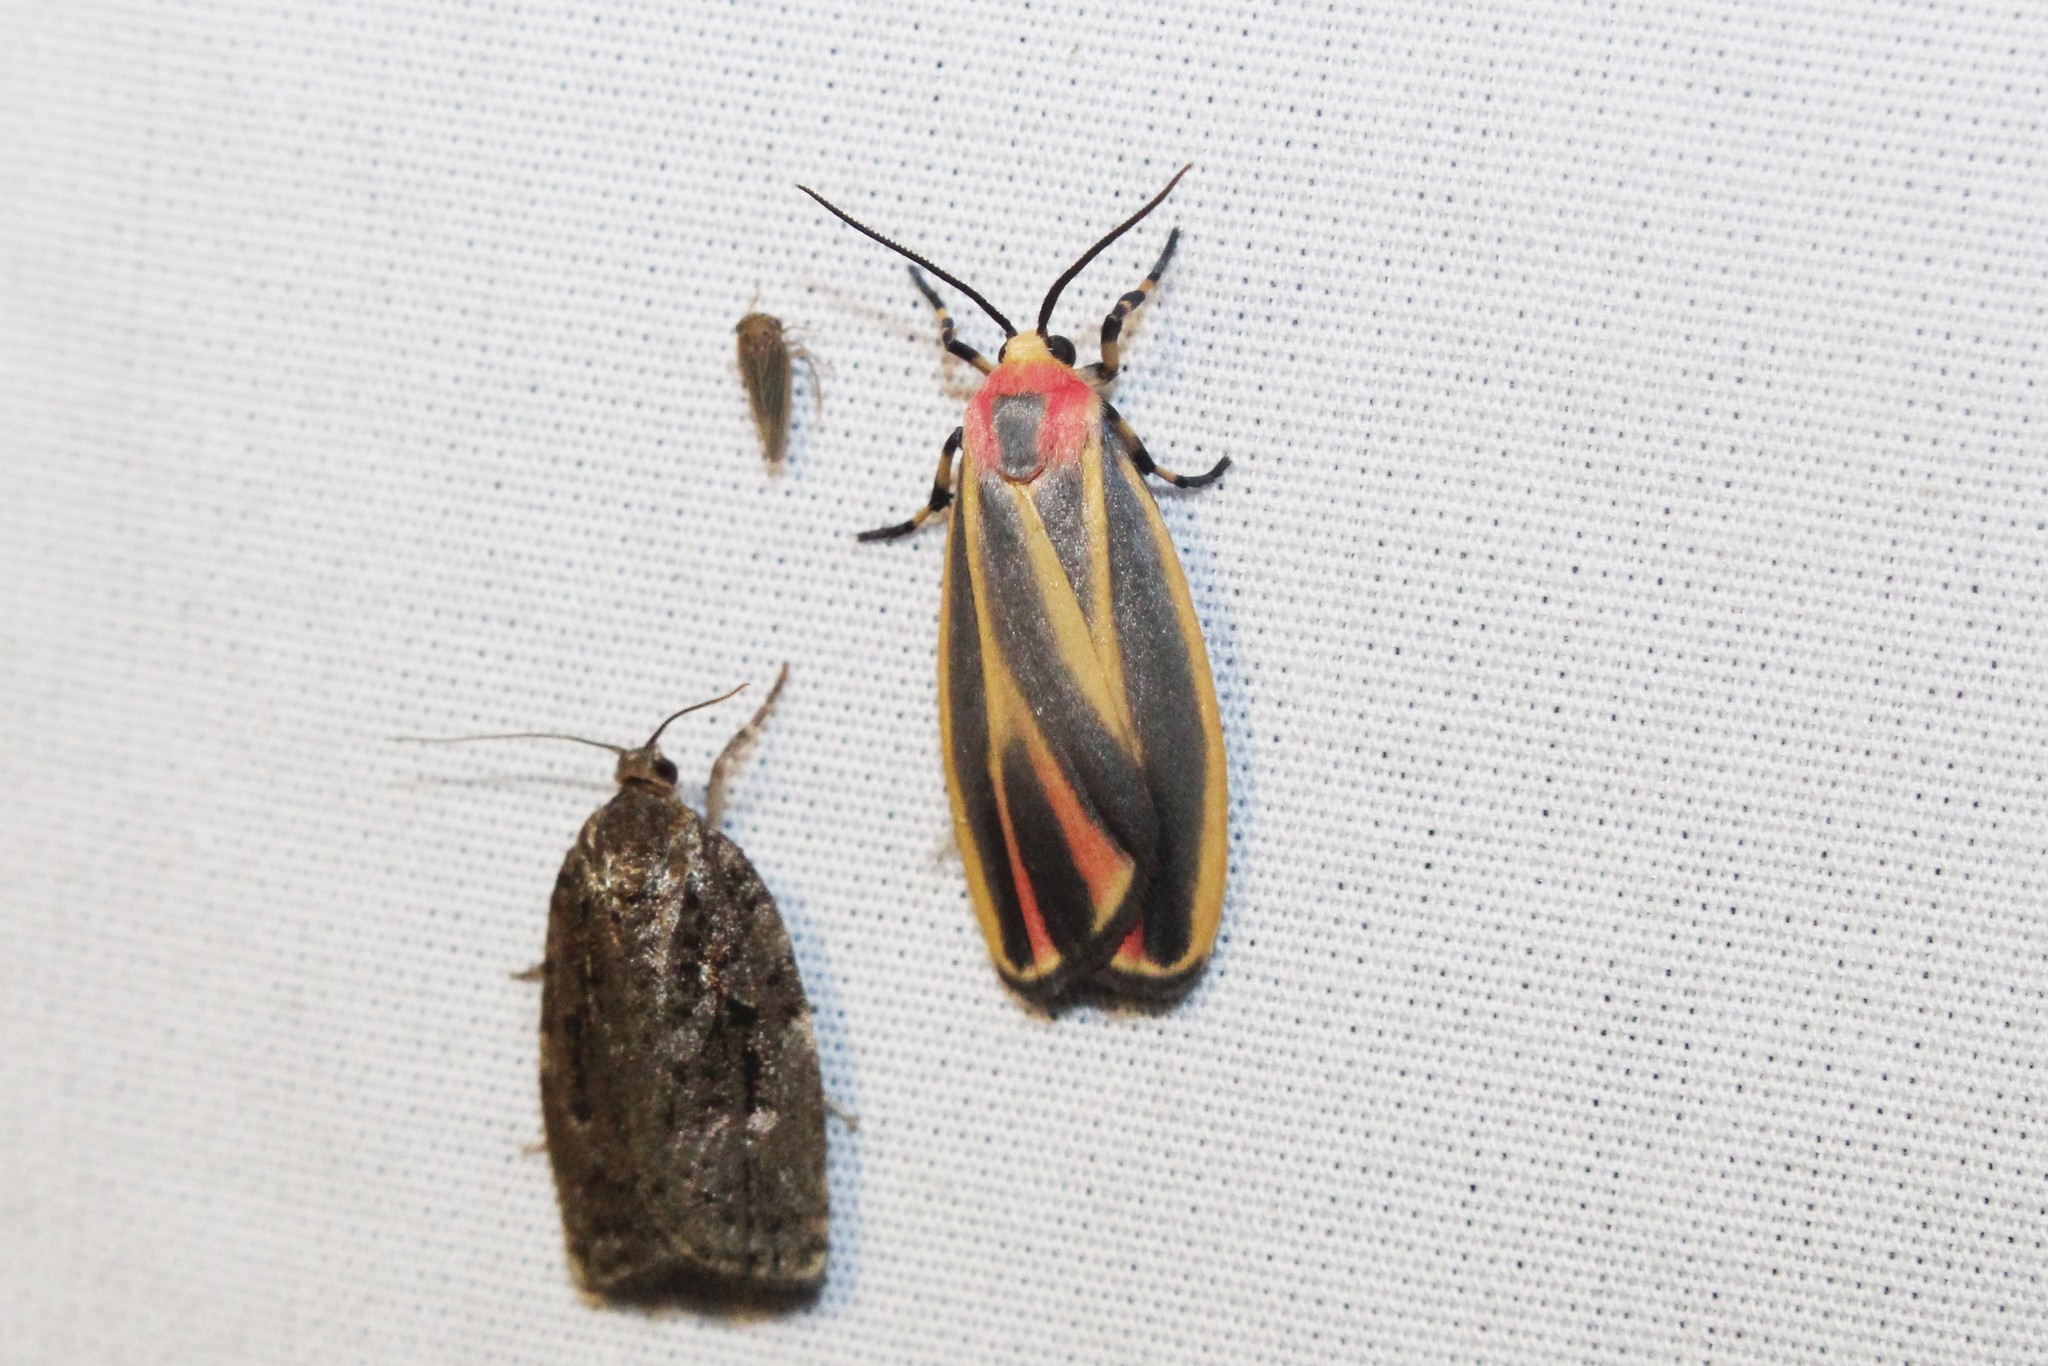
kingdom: Animalia
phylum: Arthropoda
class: Insecta
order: Lepidoptera
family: Erebidae
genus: Hypoprepia
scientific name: Hypoprepia fucosa
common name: Painted lichen moth
